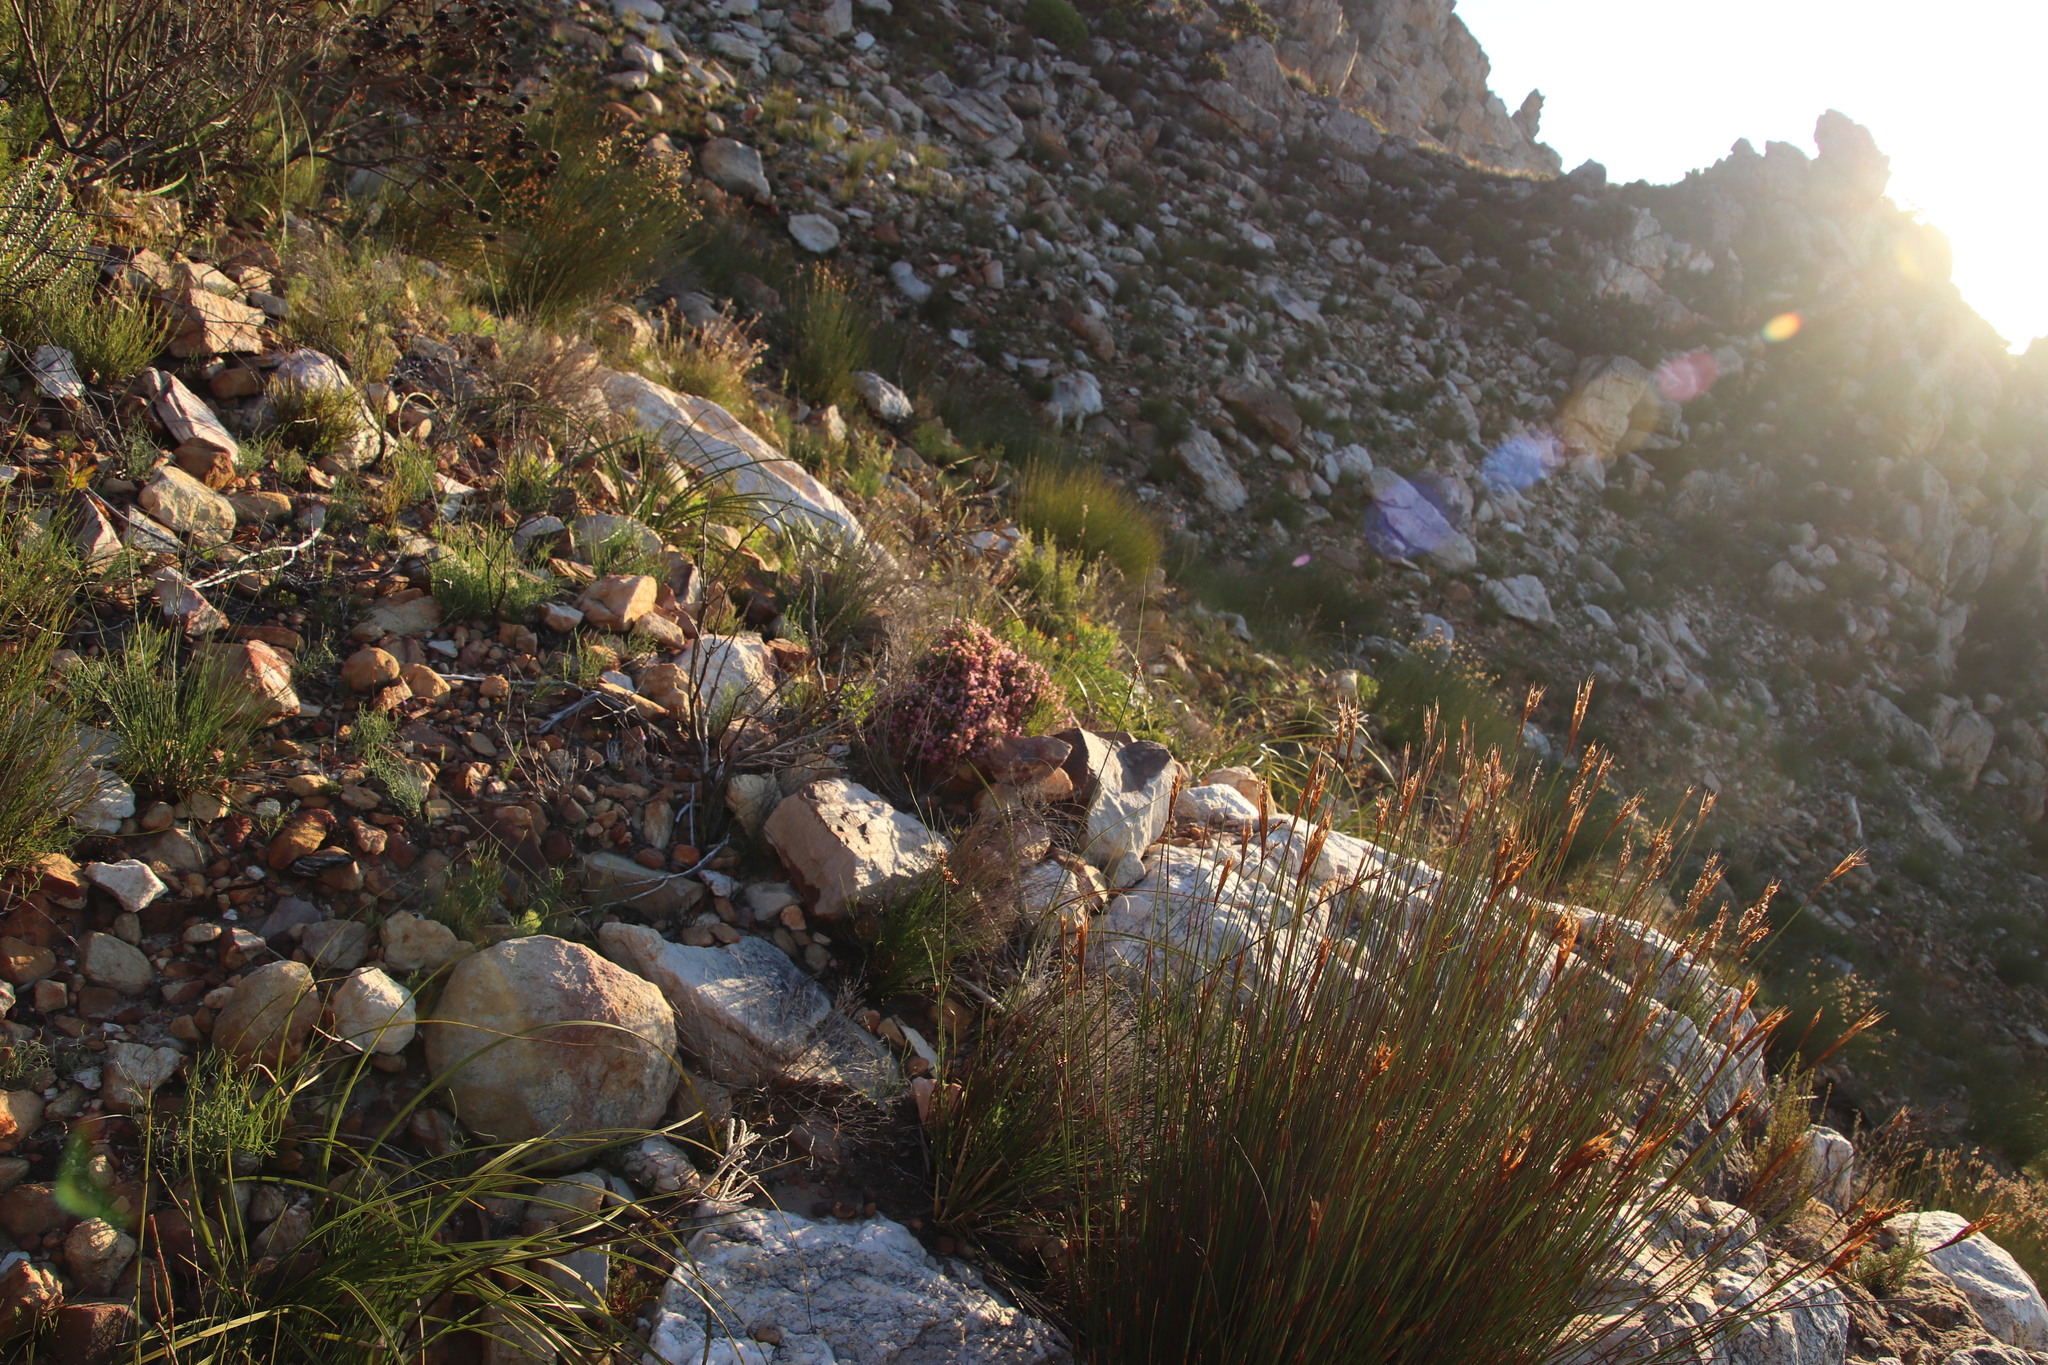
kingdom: Plantae
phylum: Tracheophyta
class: Magnoliopsida
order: Ericales
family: Ericaceae
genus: Erica
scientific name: Erica labialis
